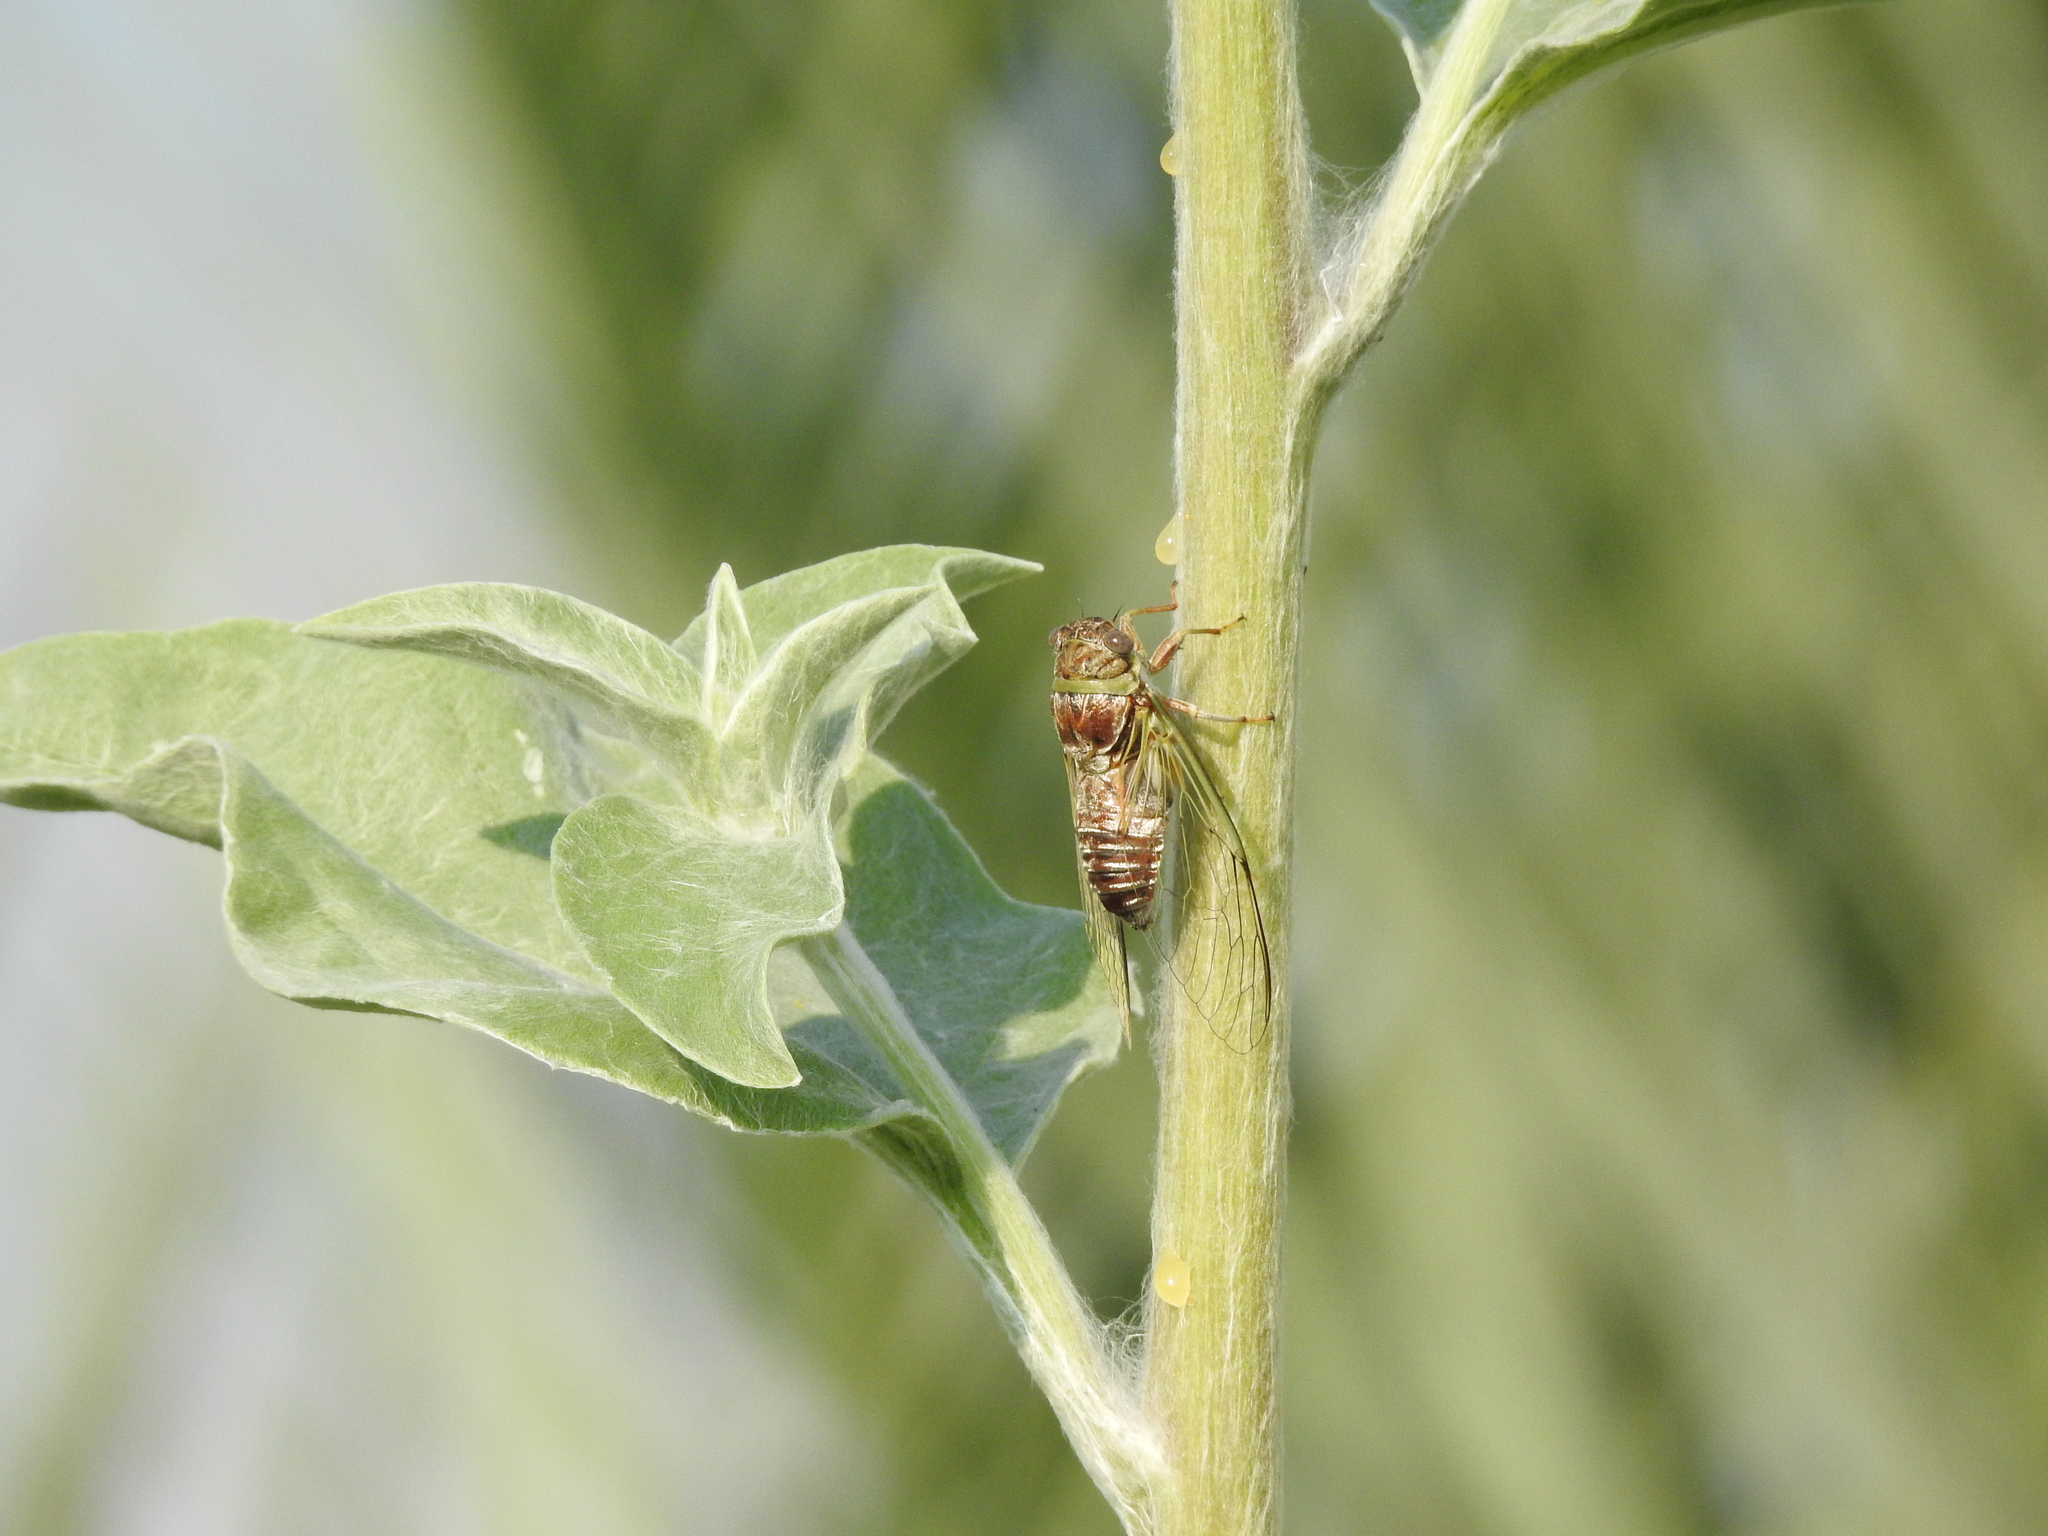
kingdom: Animalia
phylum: Arthropoda
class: Insecta
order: Hemiptera
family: Cicadidae
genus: Diceroprocta
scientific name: Diceroprocta viridifascia
